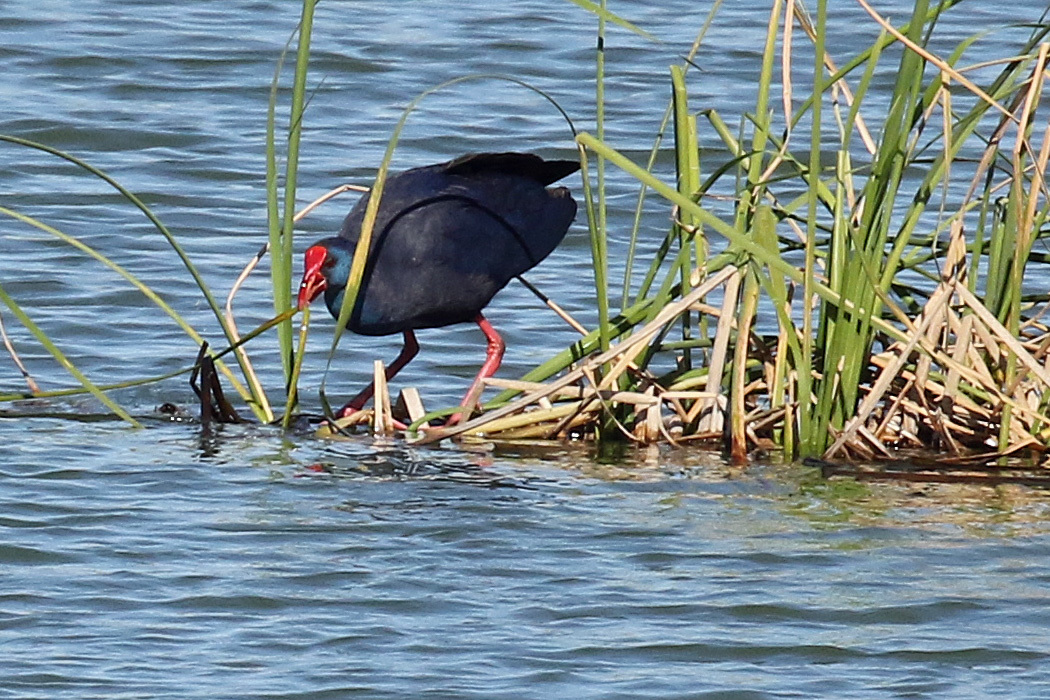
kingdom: Animalia
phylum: Chordata
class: Aves
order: Gruiformes
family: Rallidae
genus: Porphyrio
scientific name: Porphyrio porphyrio
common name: Purple swamphen
